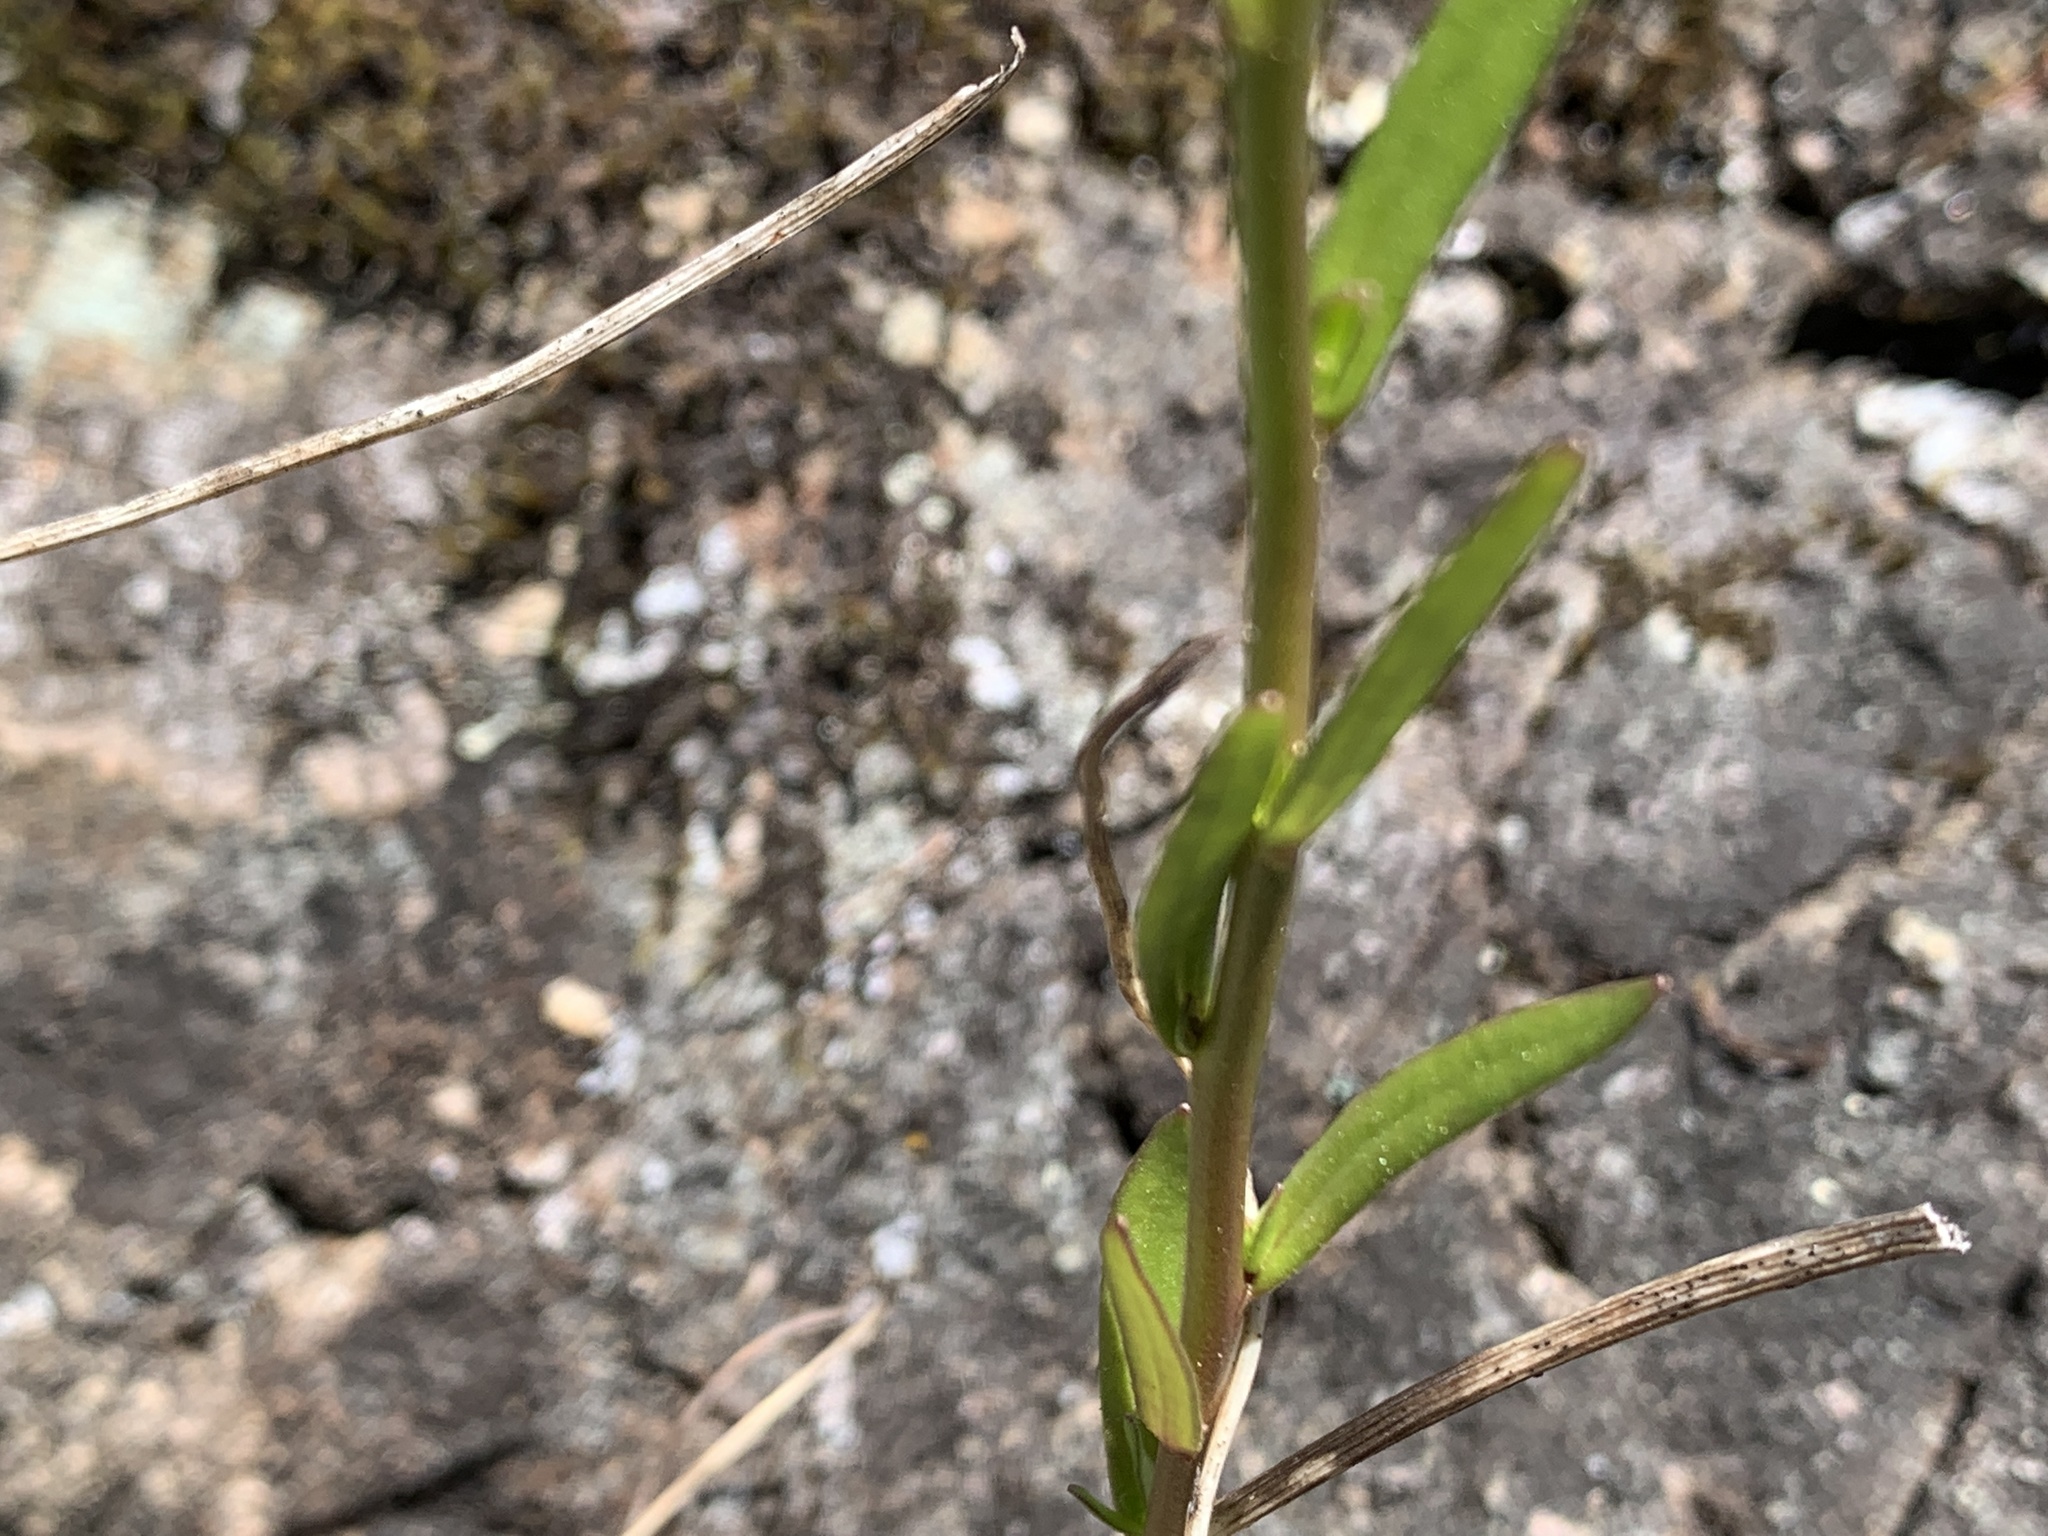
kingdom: Plantae
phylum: Tracheophyta
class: Magnoliopsida
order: Lamiales
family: Plantaginaceae
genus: Nuttallanthus
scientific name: Nuttallanthus texanus
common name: Texas toadflax
